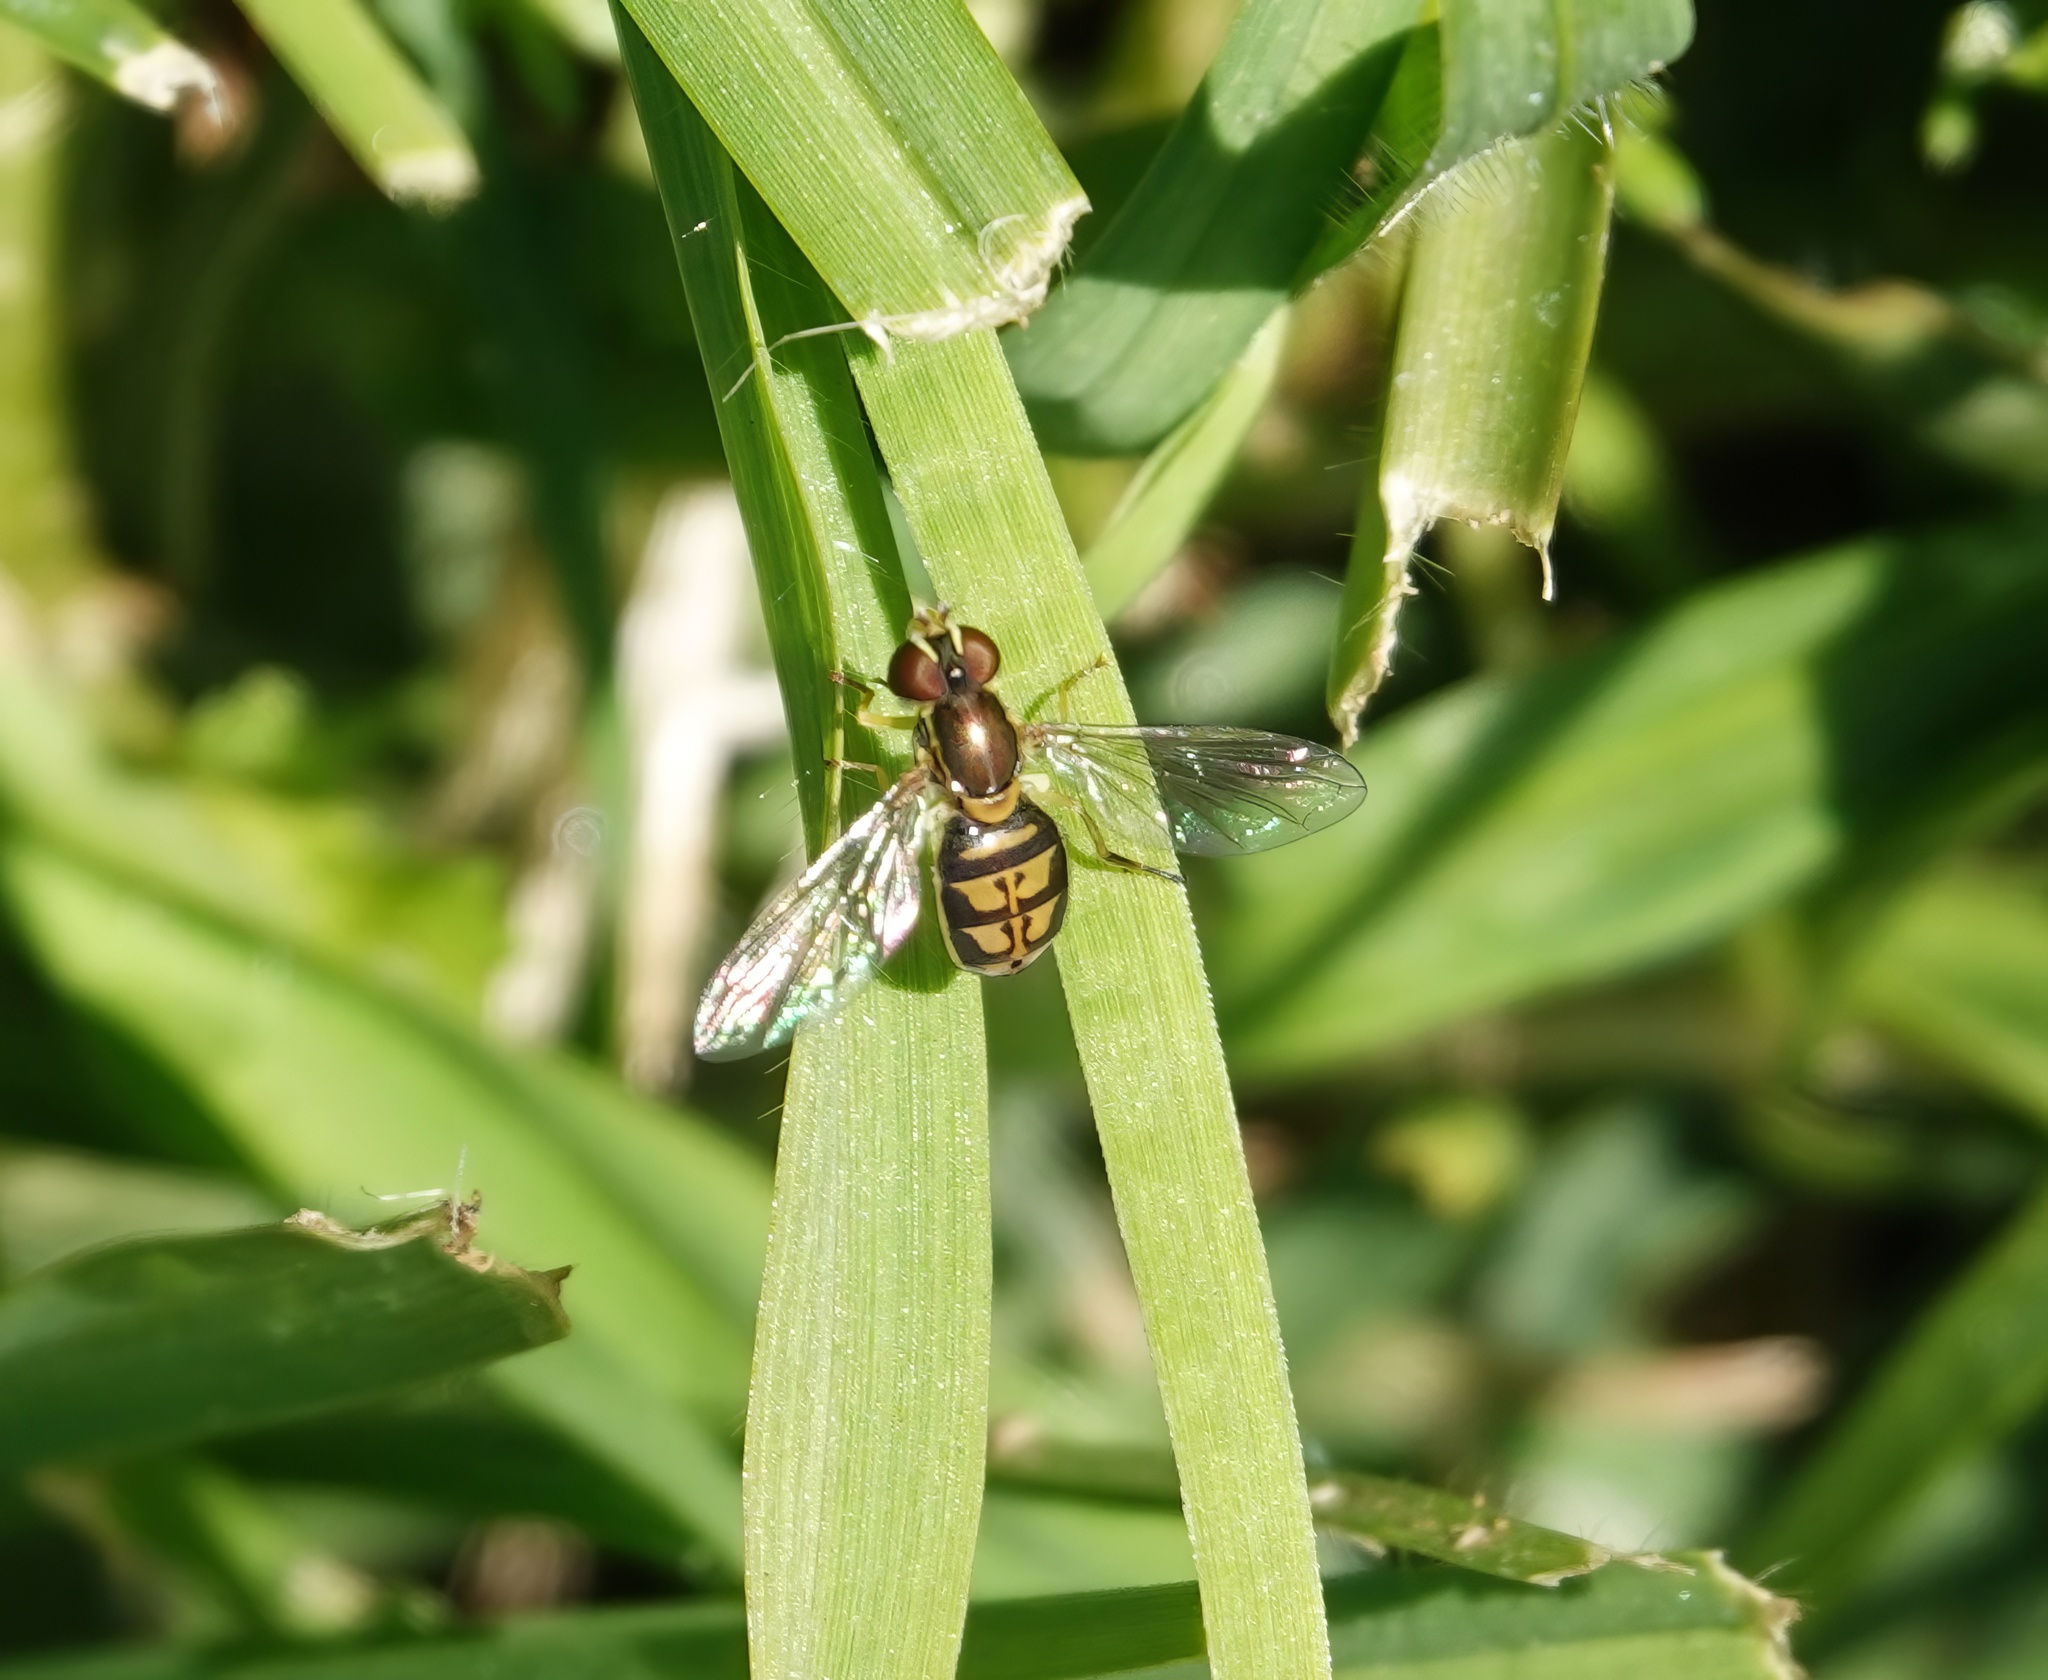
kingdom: Animalia
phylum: Arthropoda
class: Insecta
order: Diptera
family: Syrphidae
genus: Toxomerus
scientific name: Toxomerus marginatus
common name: Syrphid fly
